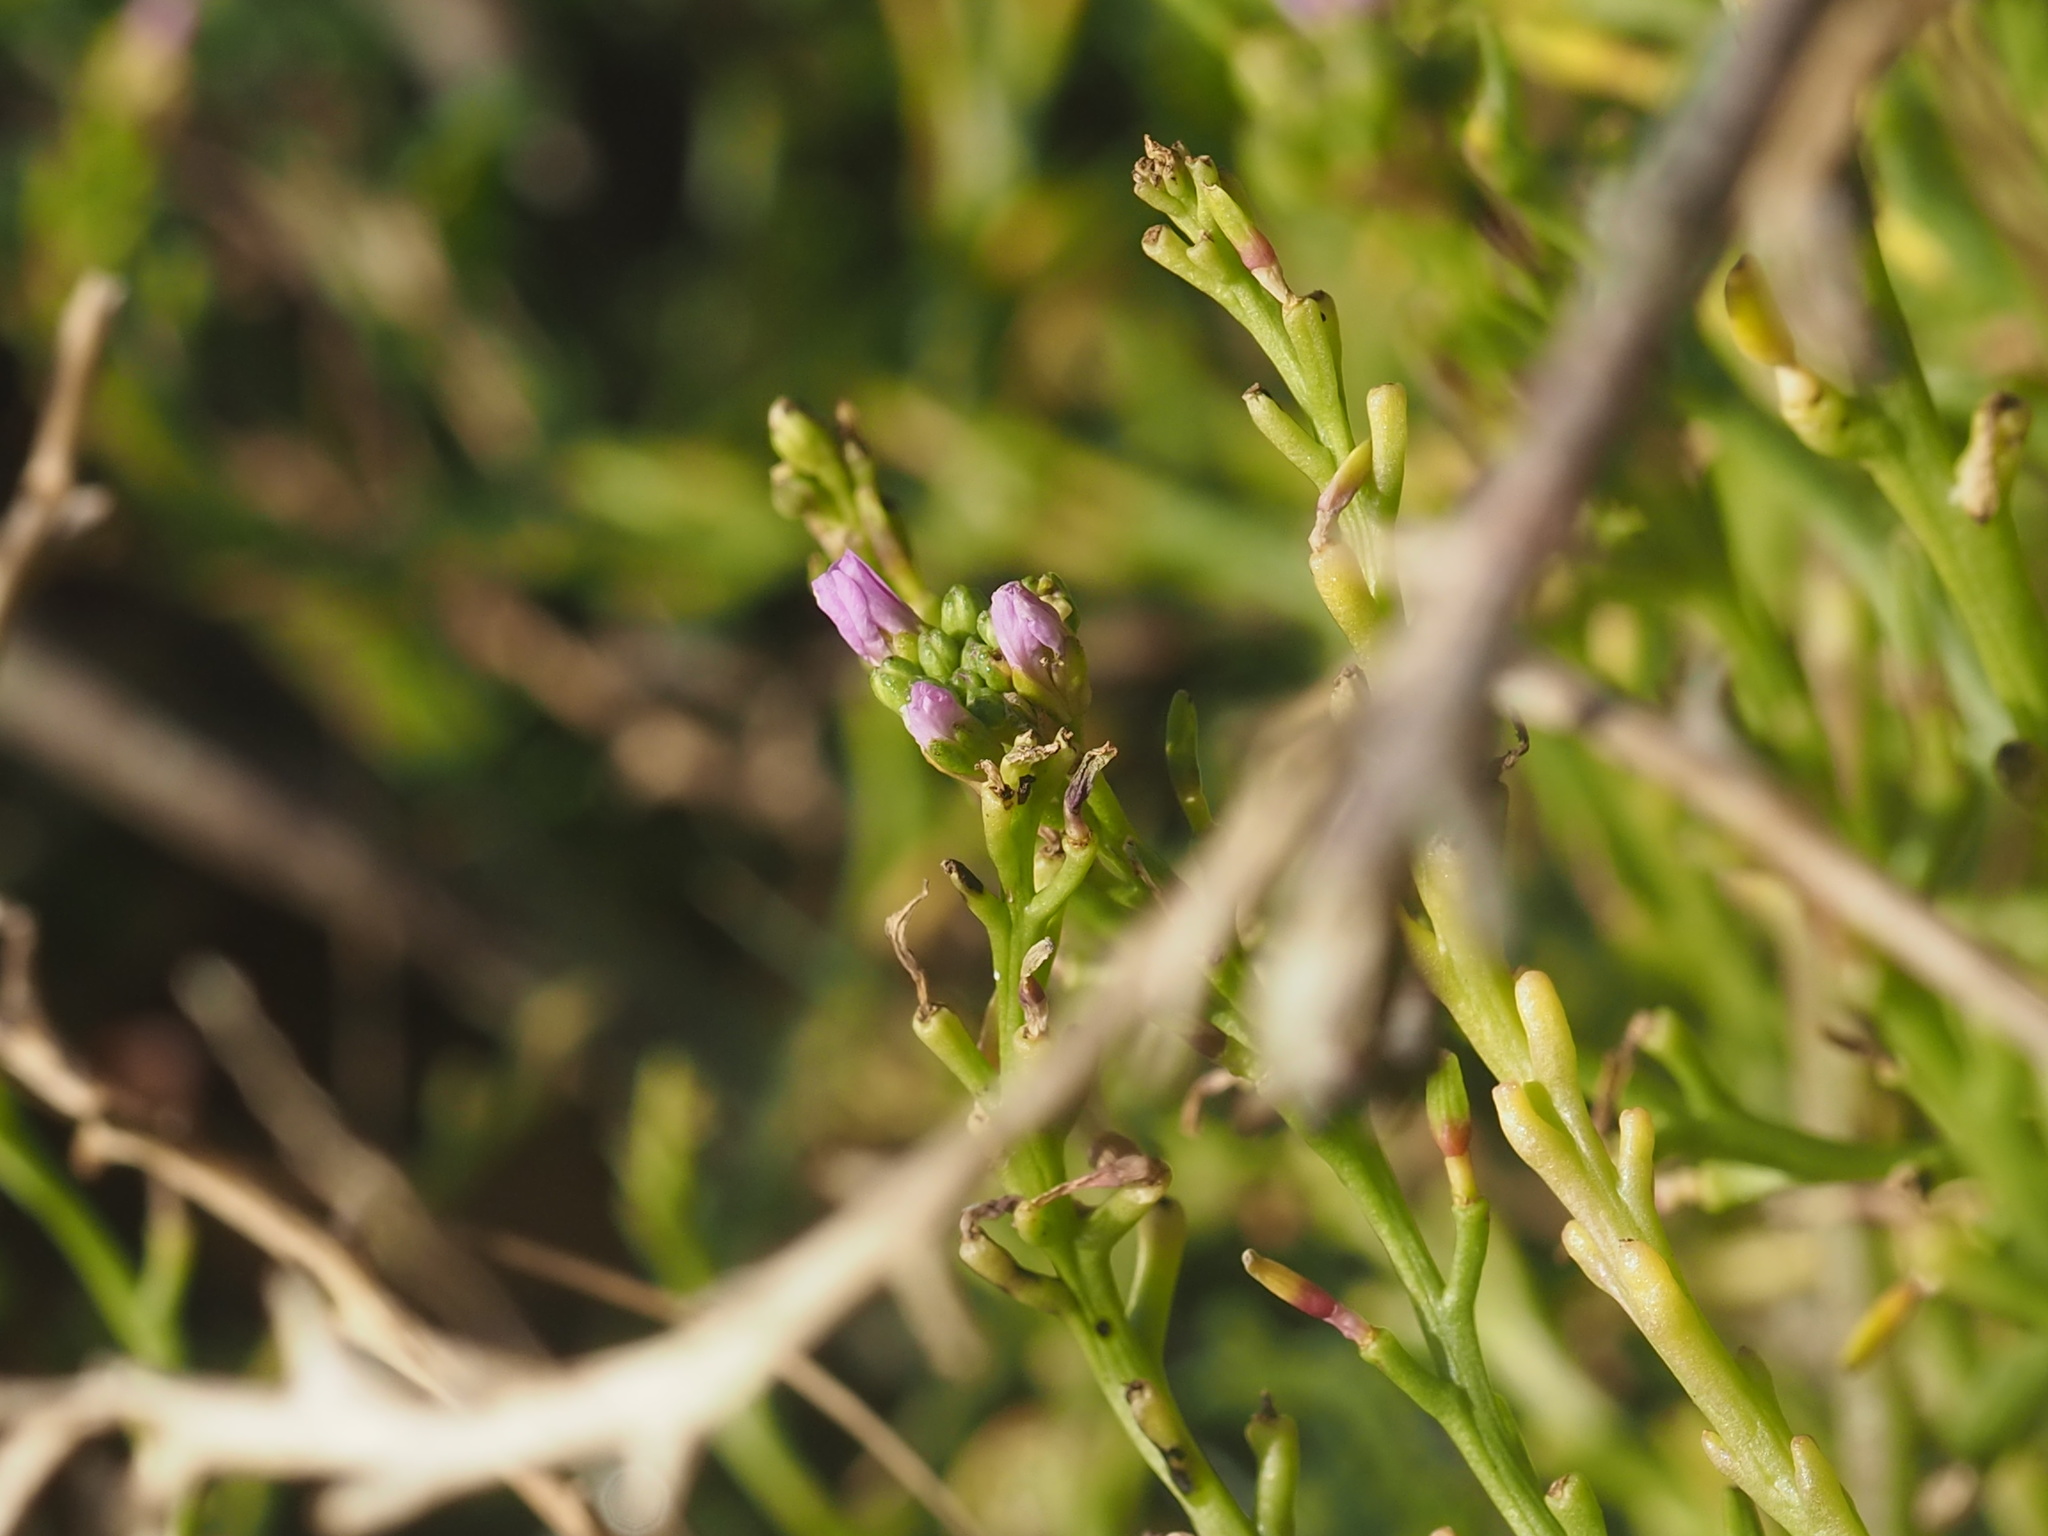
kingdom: Plantae
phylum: Tracheophyta
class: Magnoliopsida
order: Brassicales
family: Brassicaceae
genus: Cakile
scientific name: Cakile edentula
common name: American sea rocket
